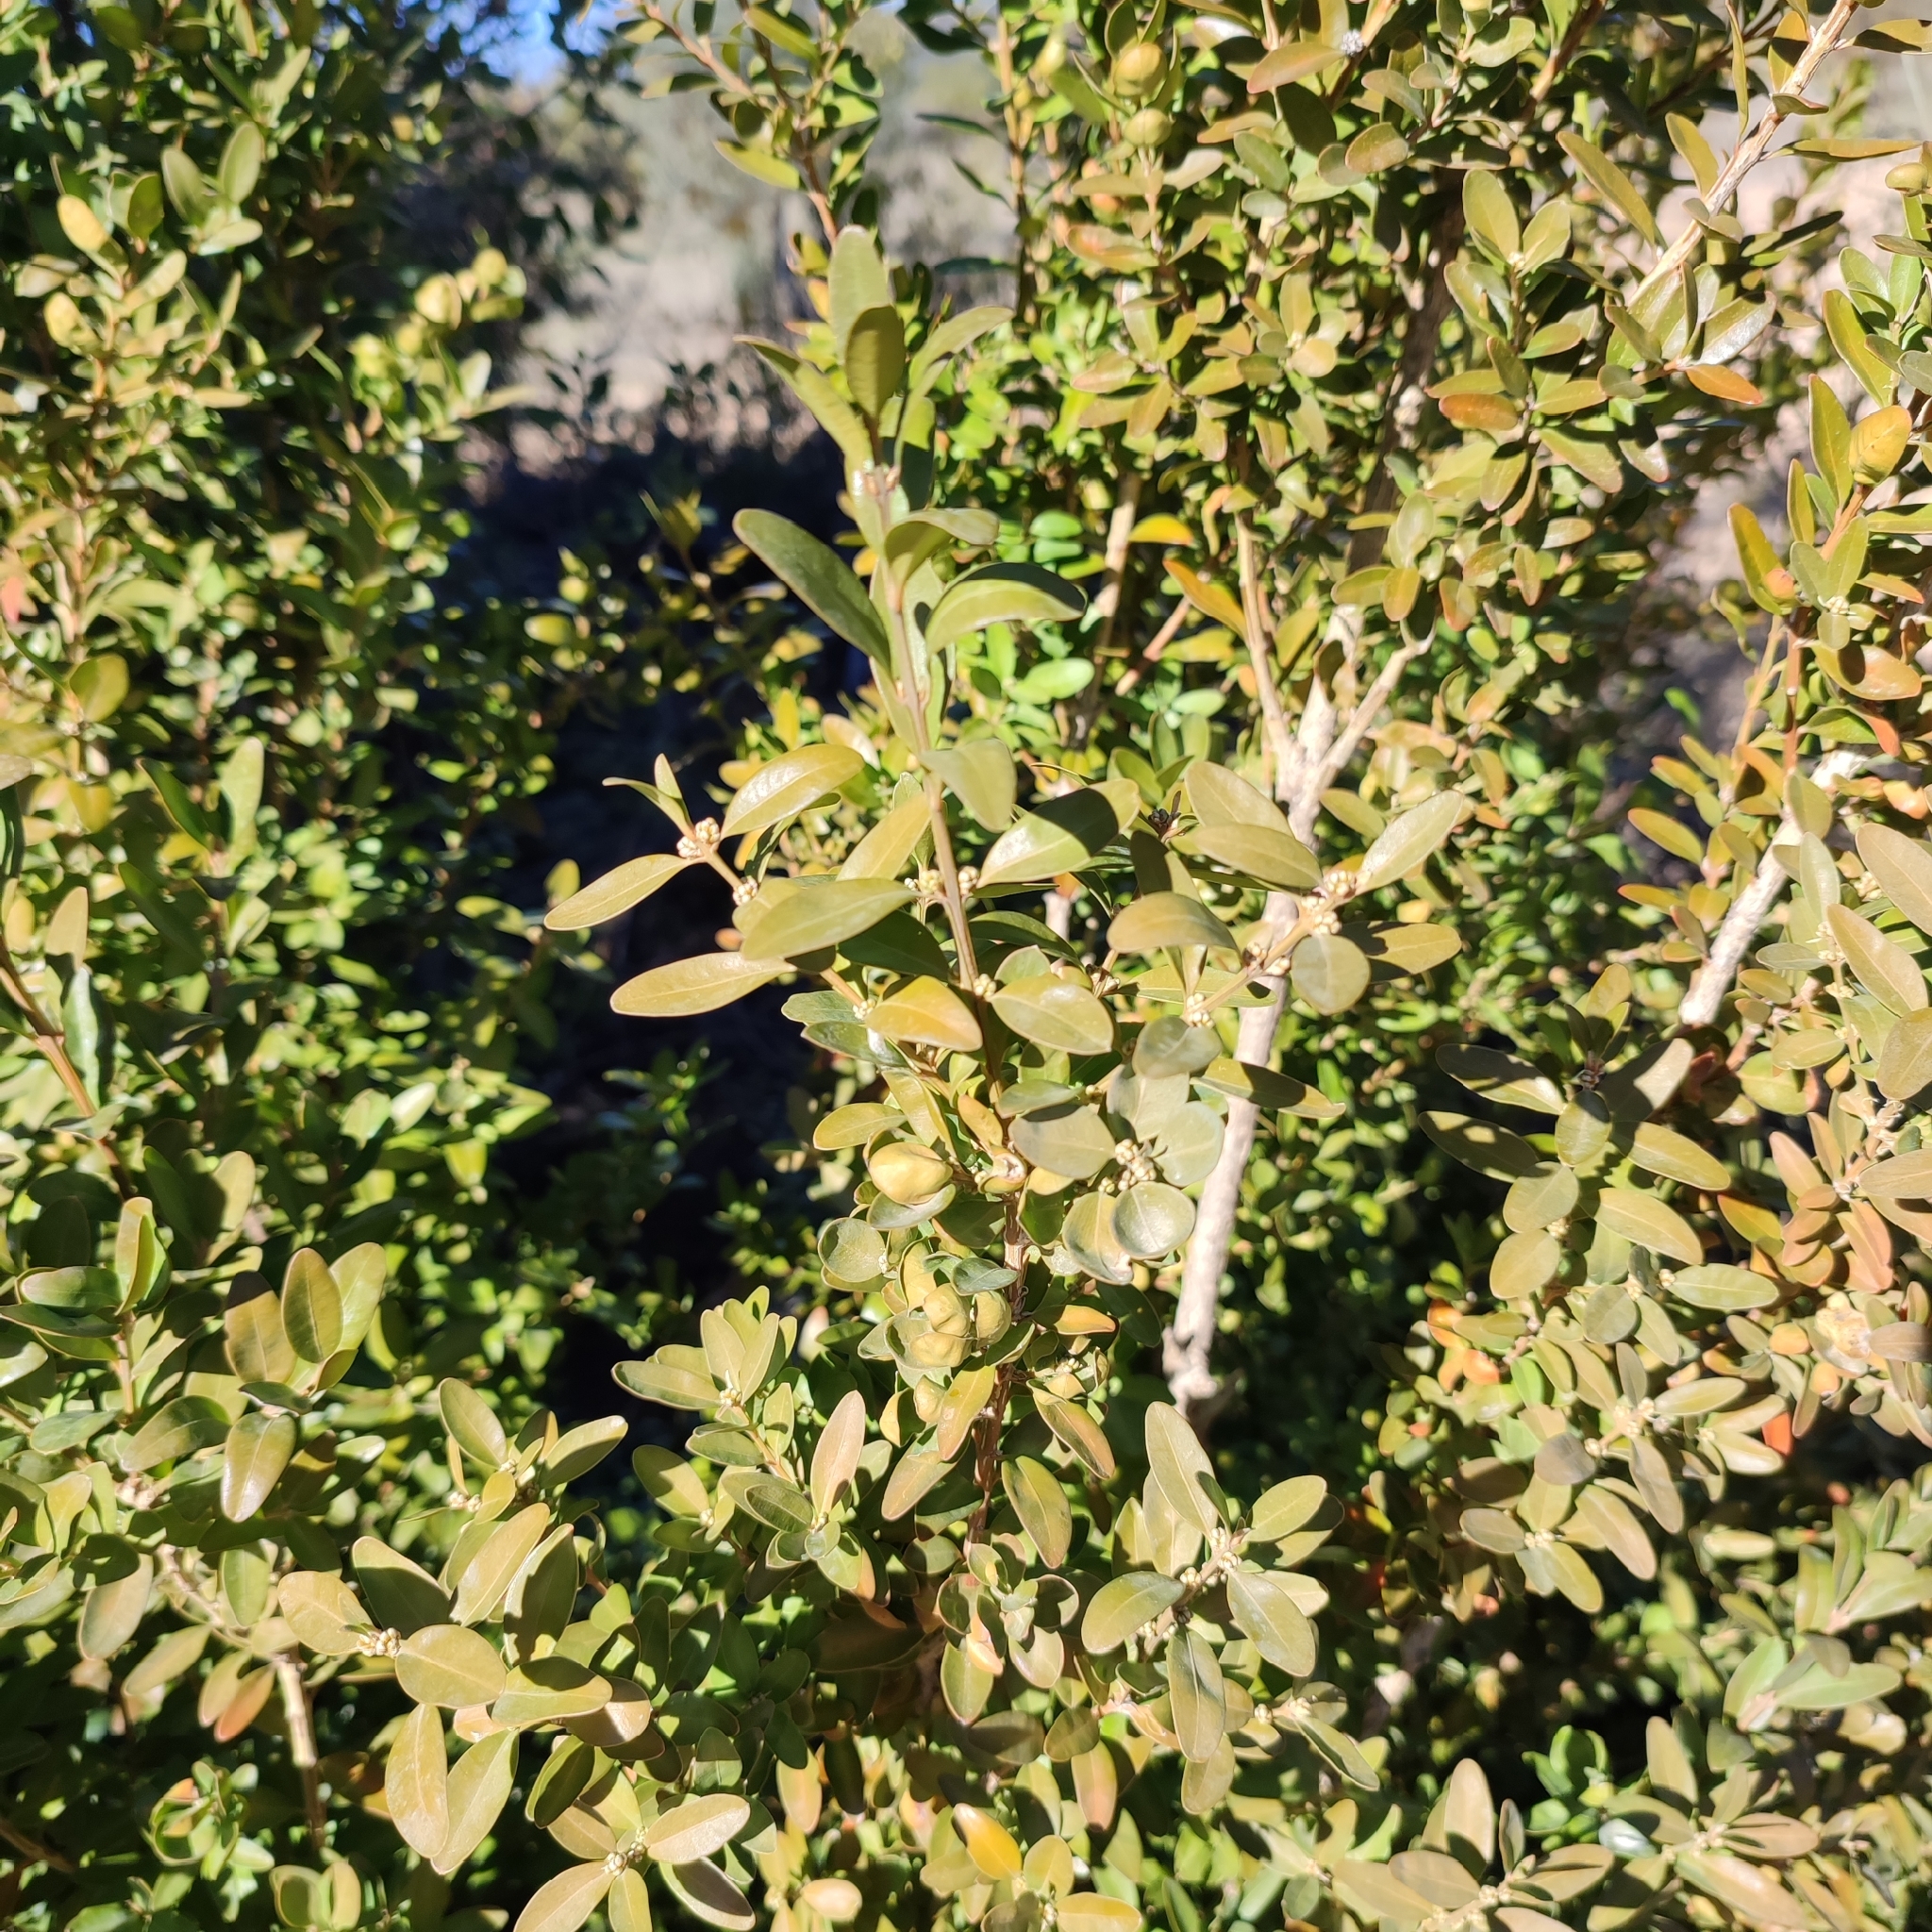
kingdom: Plantae
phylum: Tracheophyta
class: Magnoliopsida
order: Buxales
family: Buxaceae
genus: Buxus
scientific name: Buxus sempervirens
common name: Box
